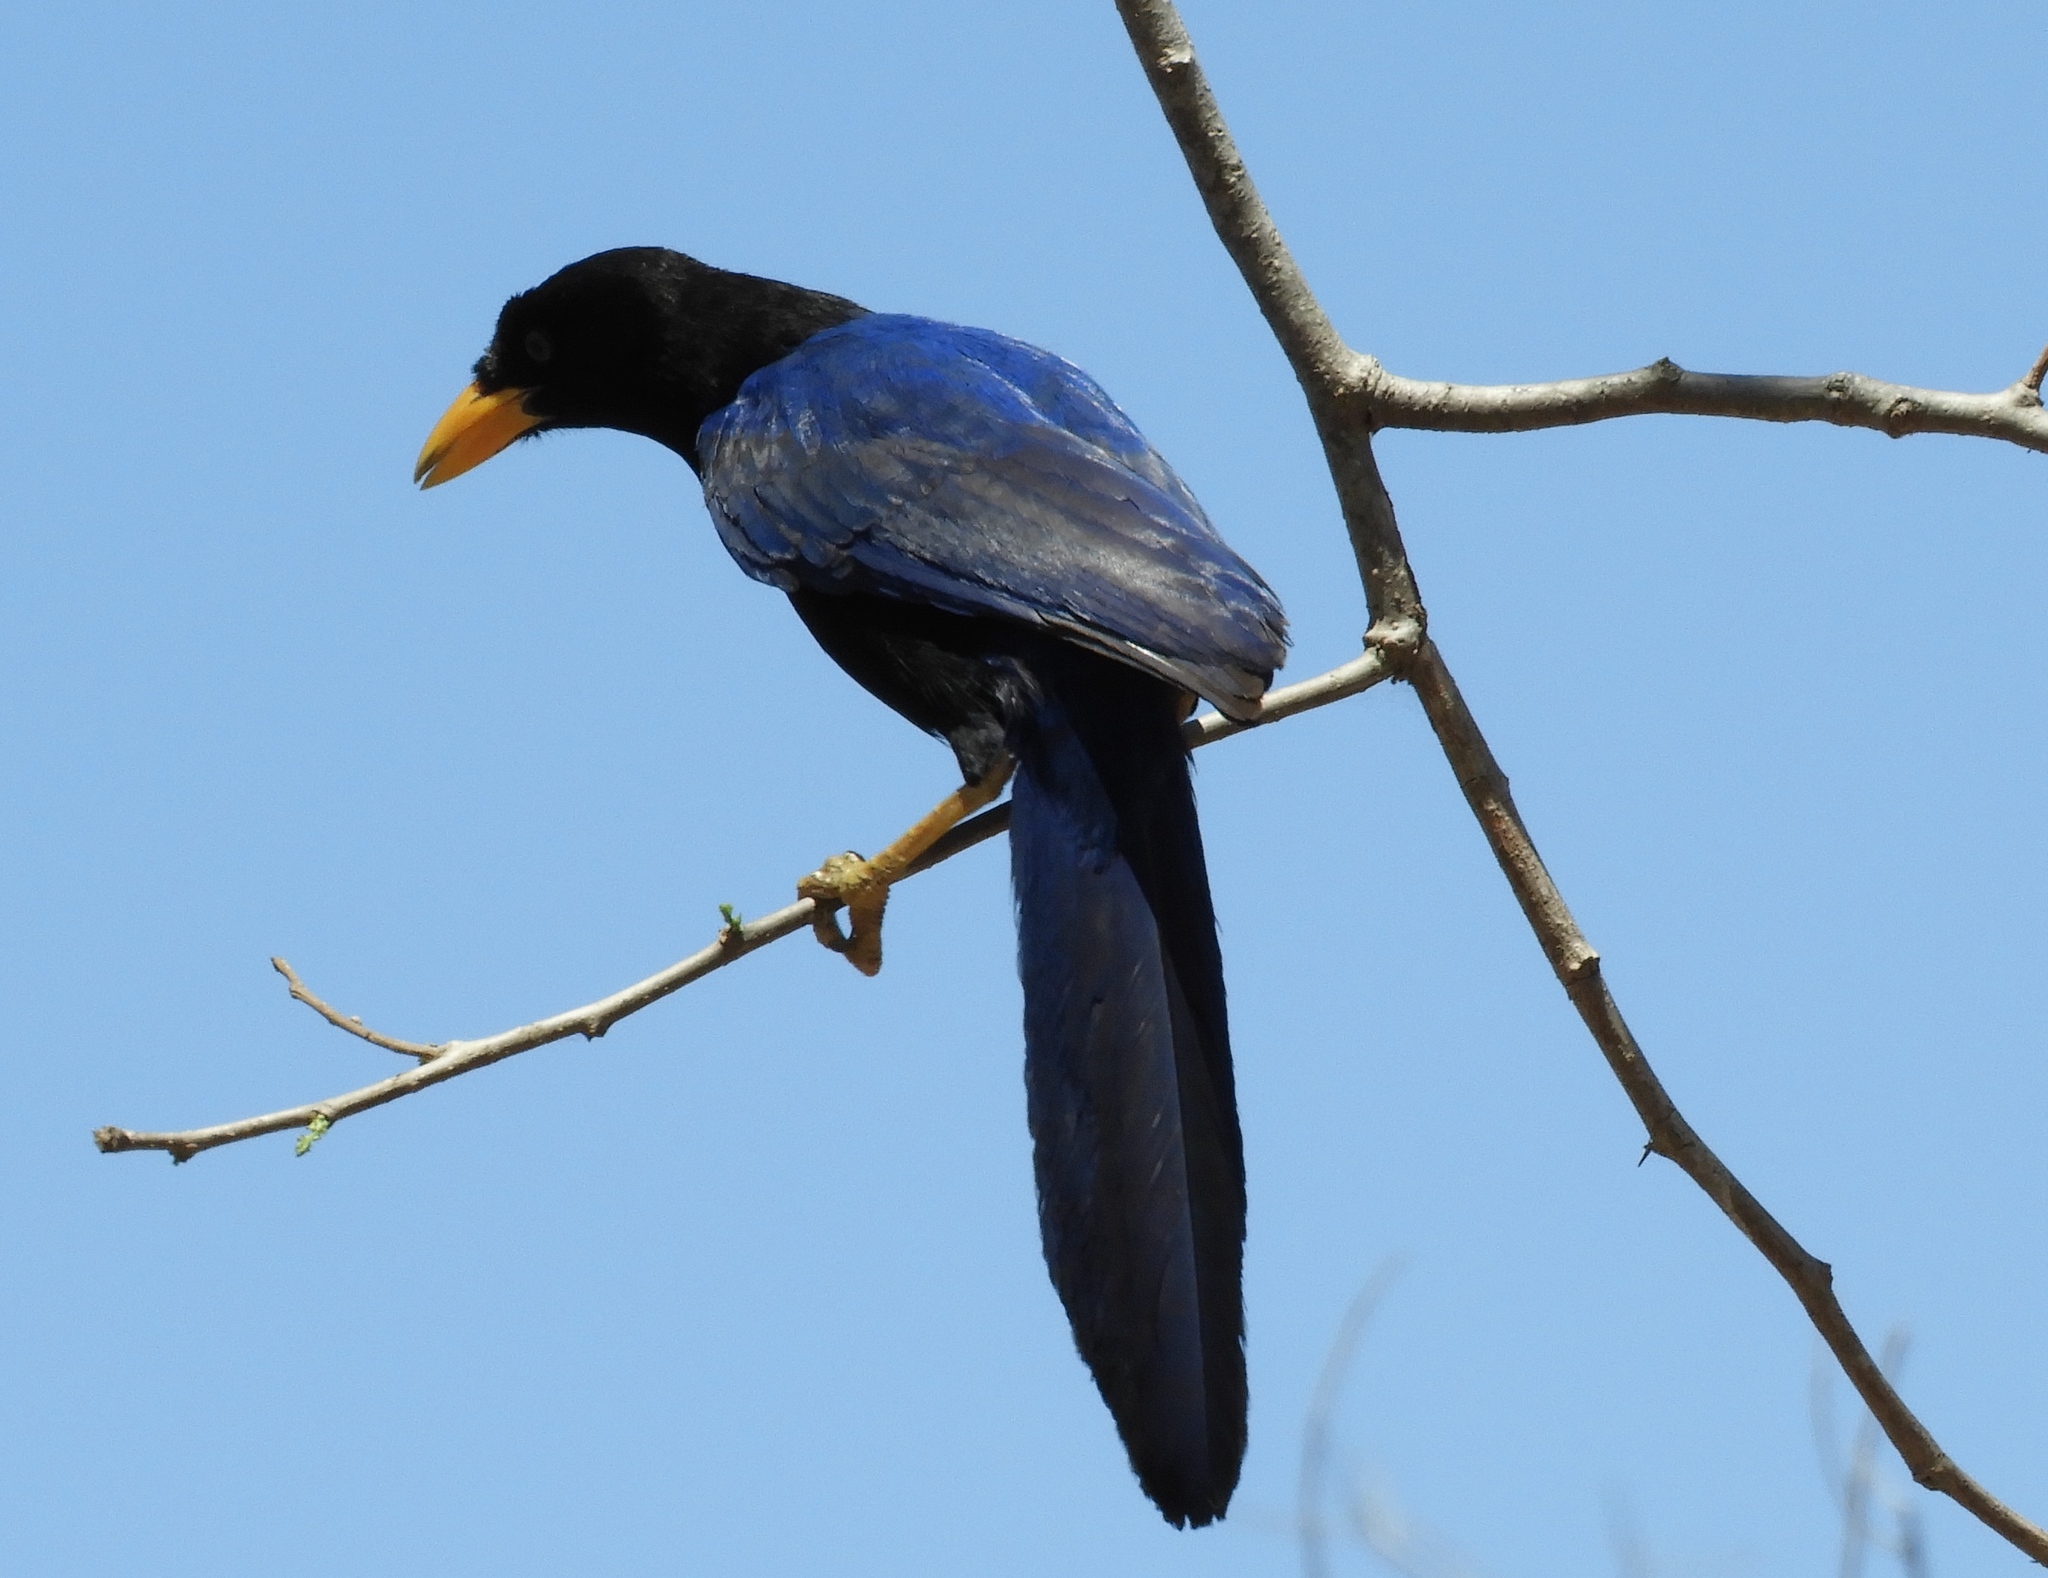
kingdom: Animalia
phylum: Chordata
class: Aves
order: Passeriformes
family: Corvidae
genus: Cyanocorax
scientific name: Cyanocorax beecheii
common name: Purplish-backed jay
